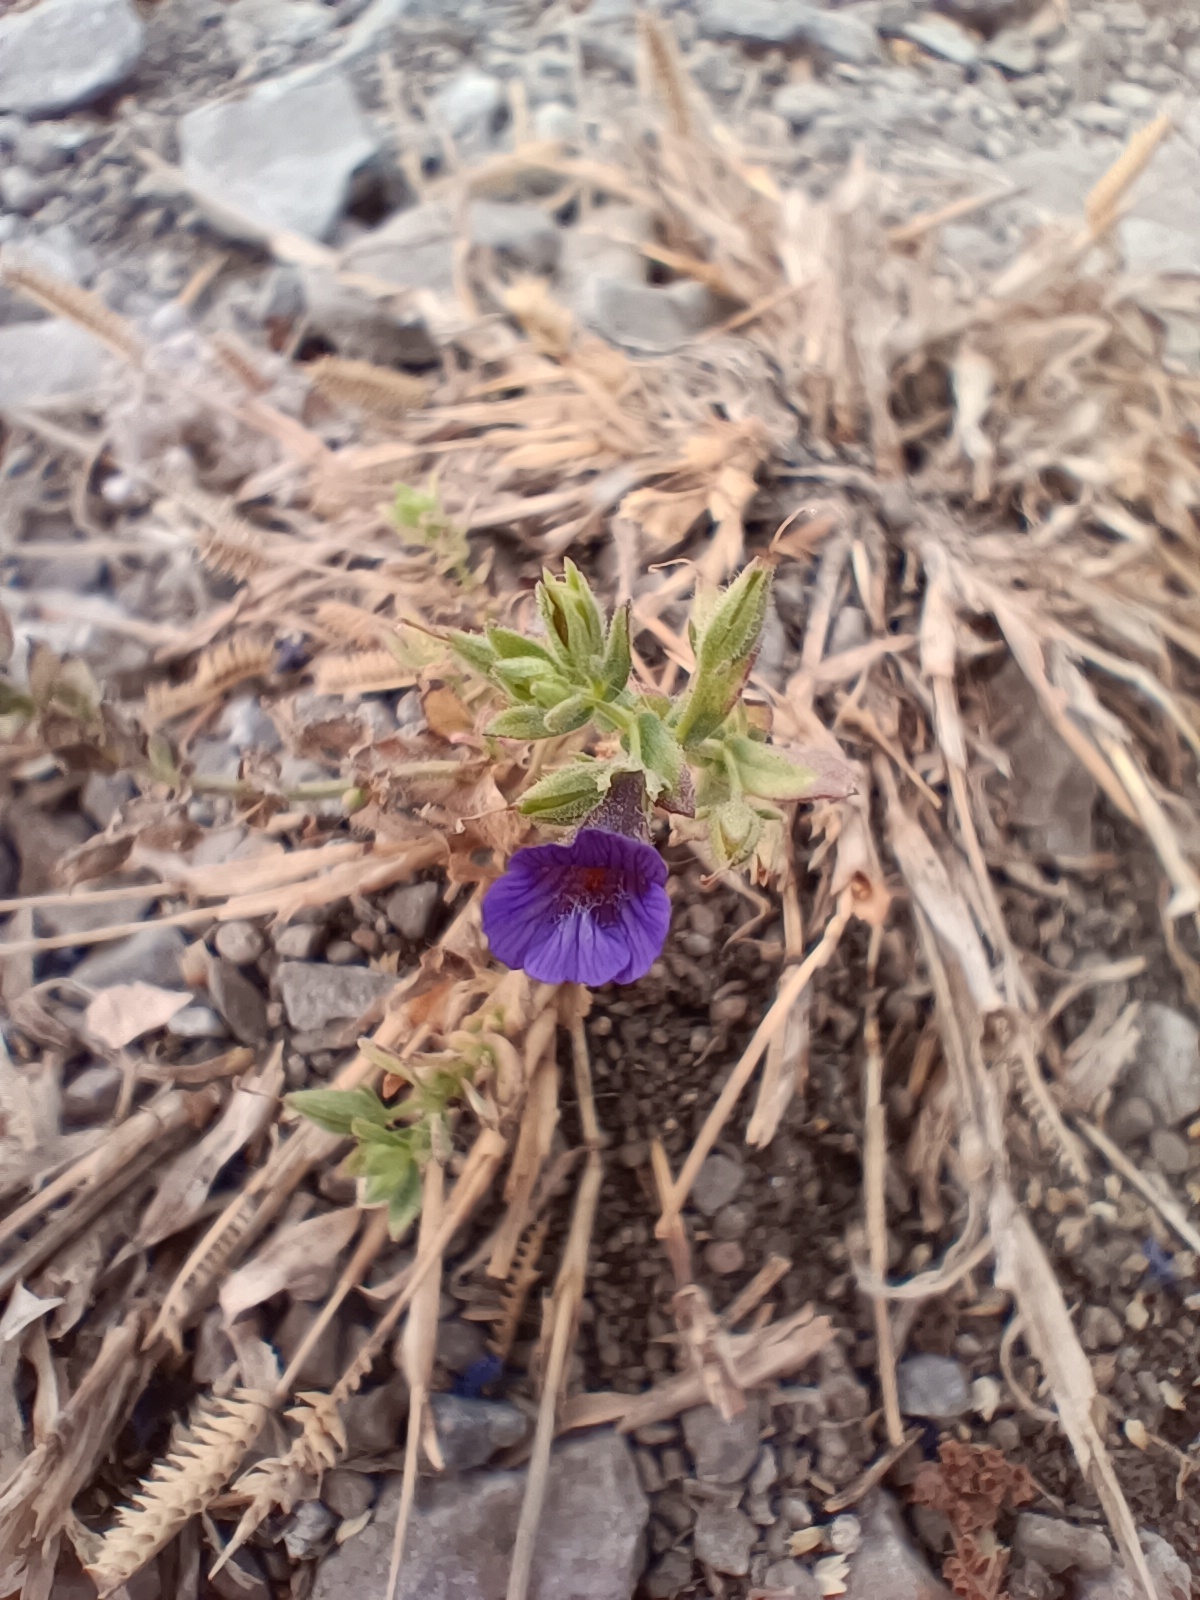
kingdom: Plantae
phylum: Tracheophyta
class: Magnoliopsida
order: Lamiales
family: Plantaginaceae
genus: Stemodia
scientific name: Stemodia viscosa
